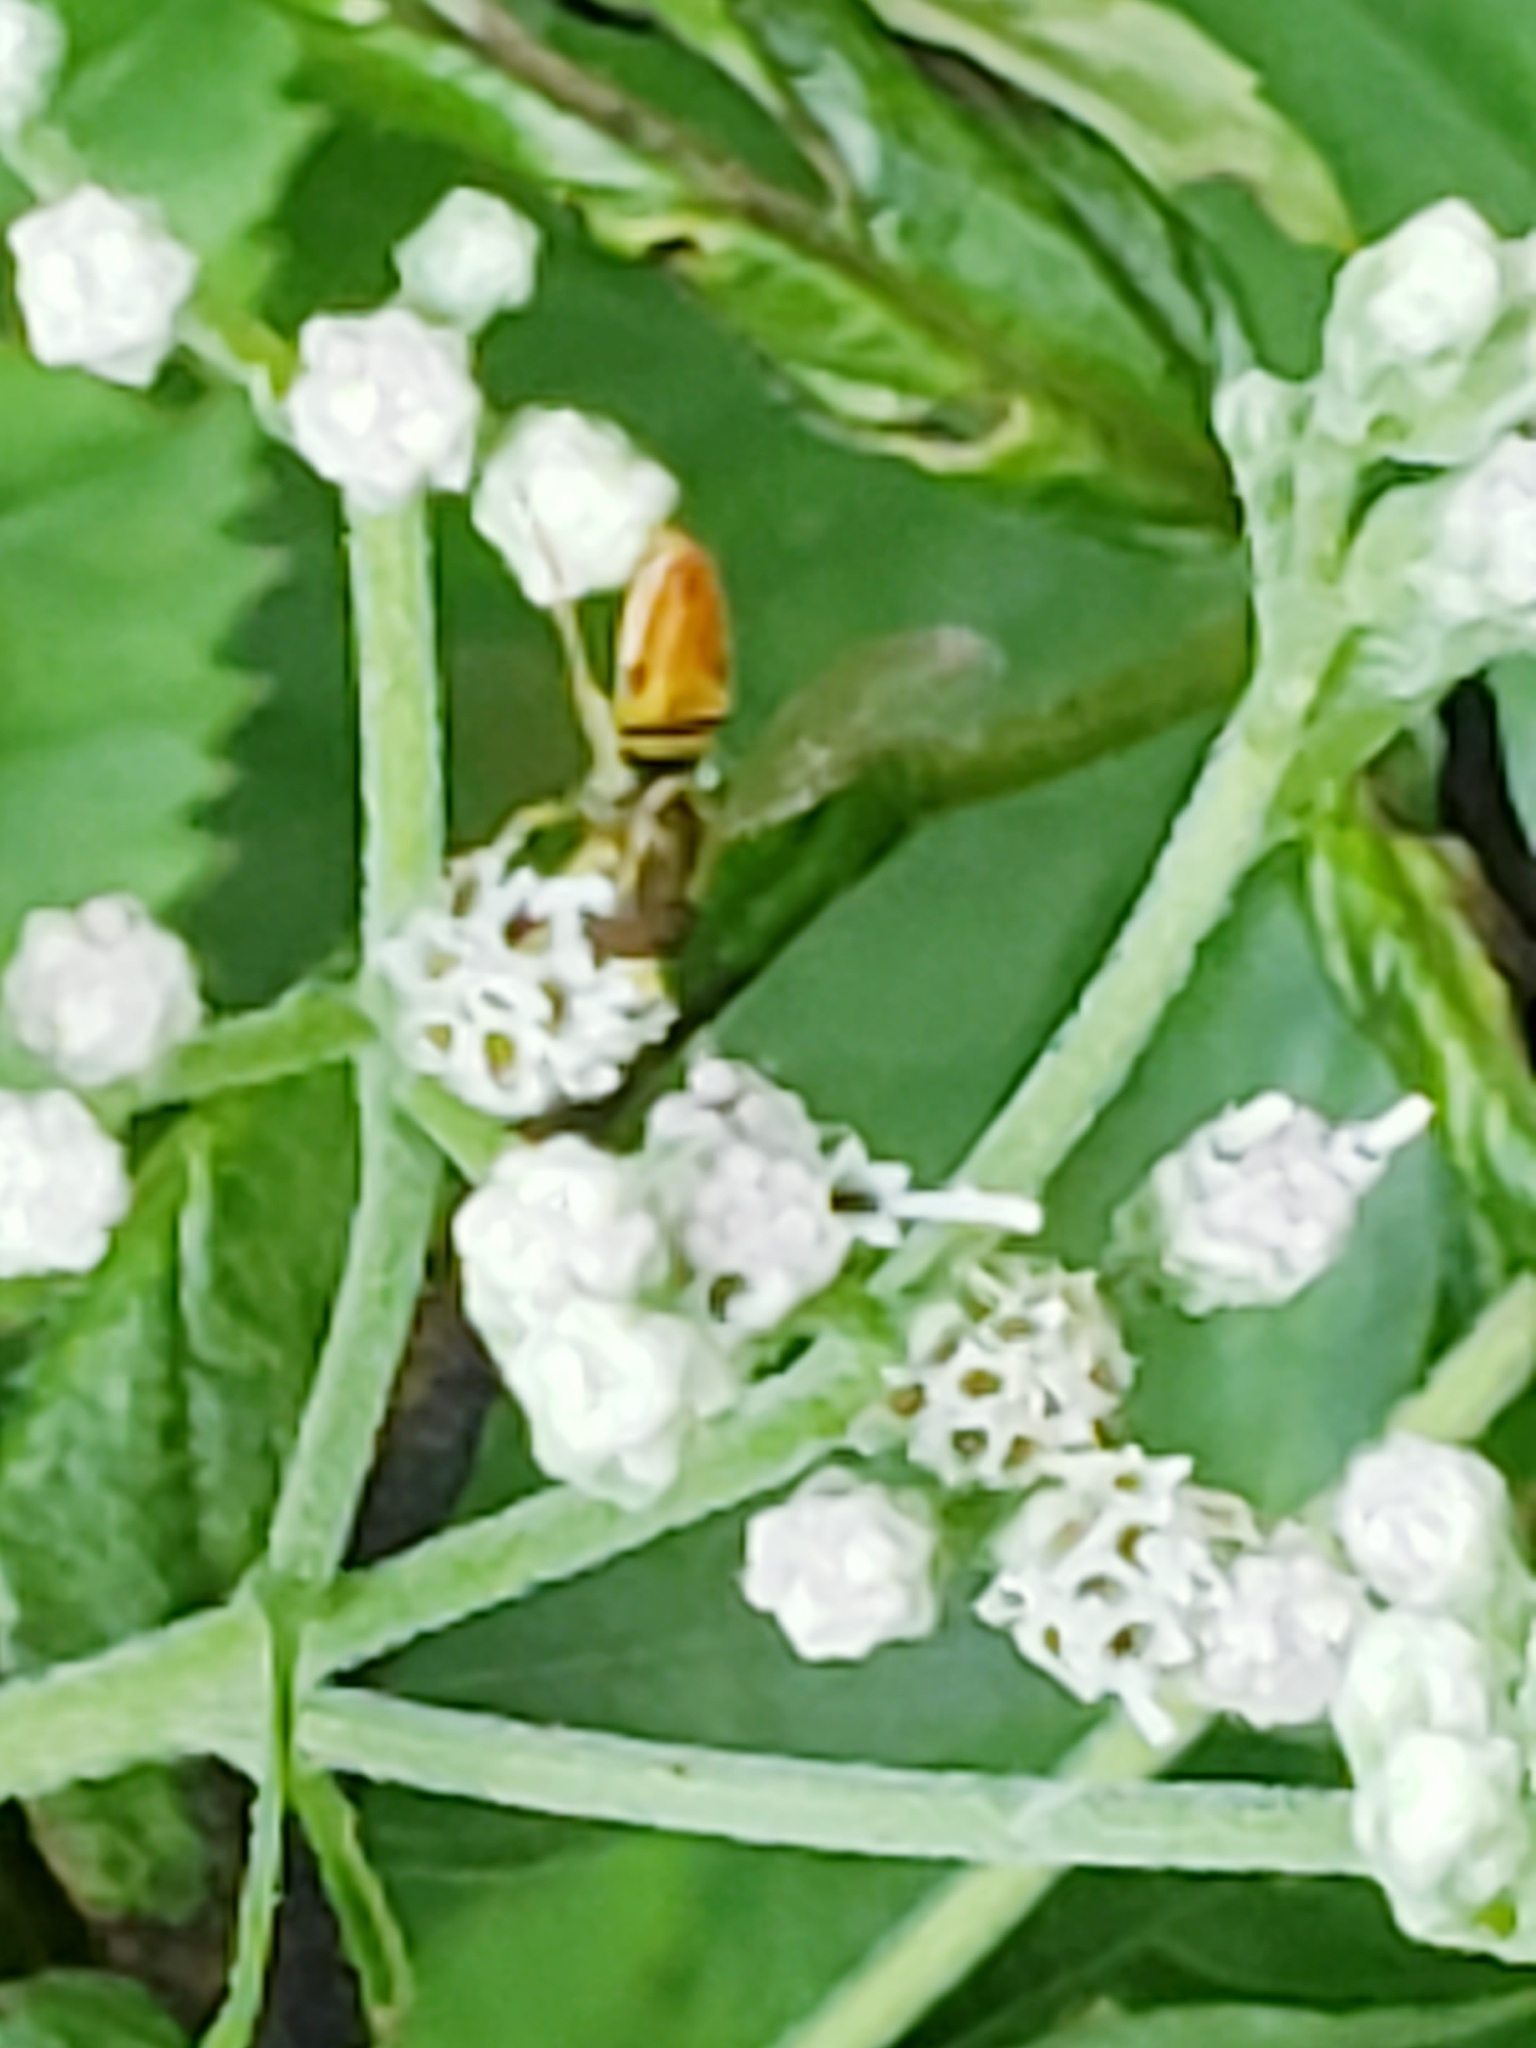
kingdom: Animalia
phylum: Arthropoda
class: Insecta
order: Diptera
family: Syrphidae
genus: Toxomerus
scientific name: Toxomerus marginatus
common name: Syrphid fly
